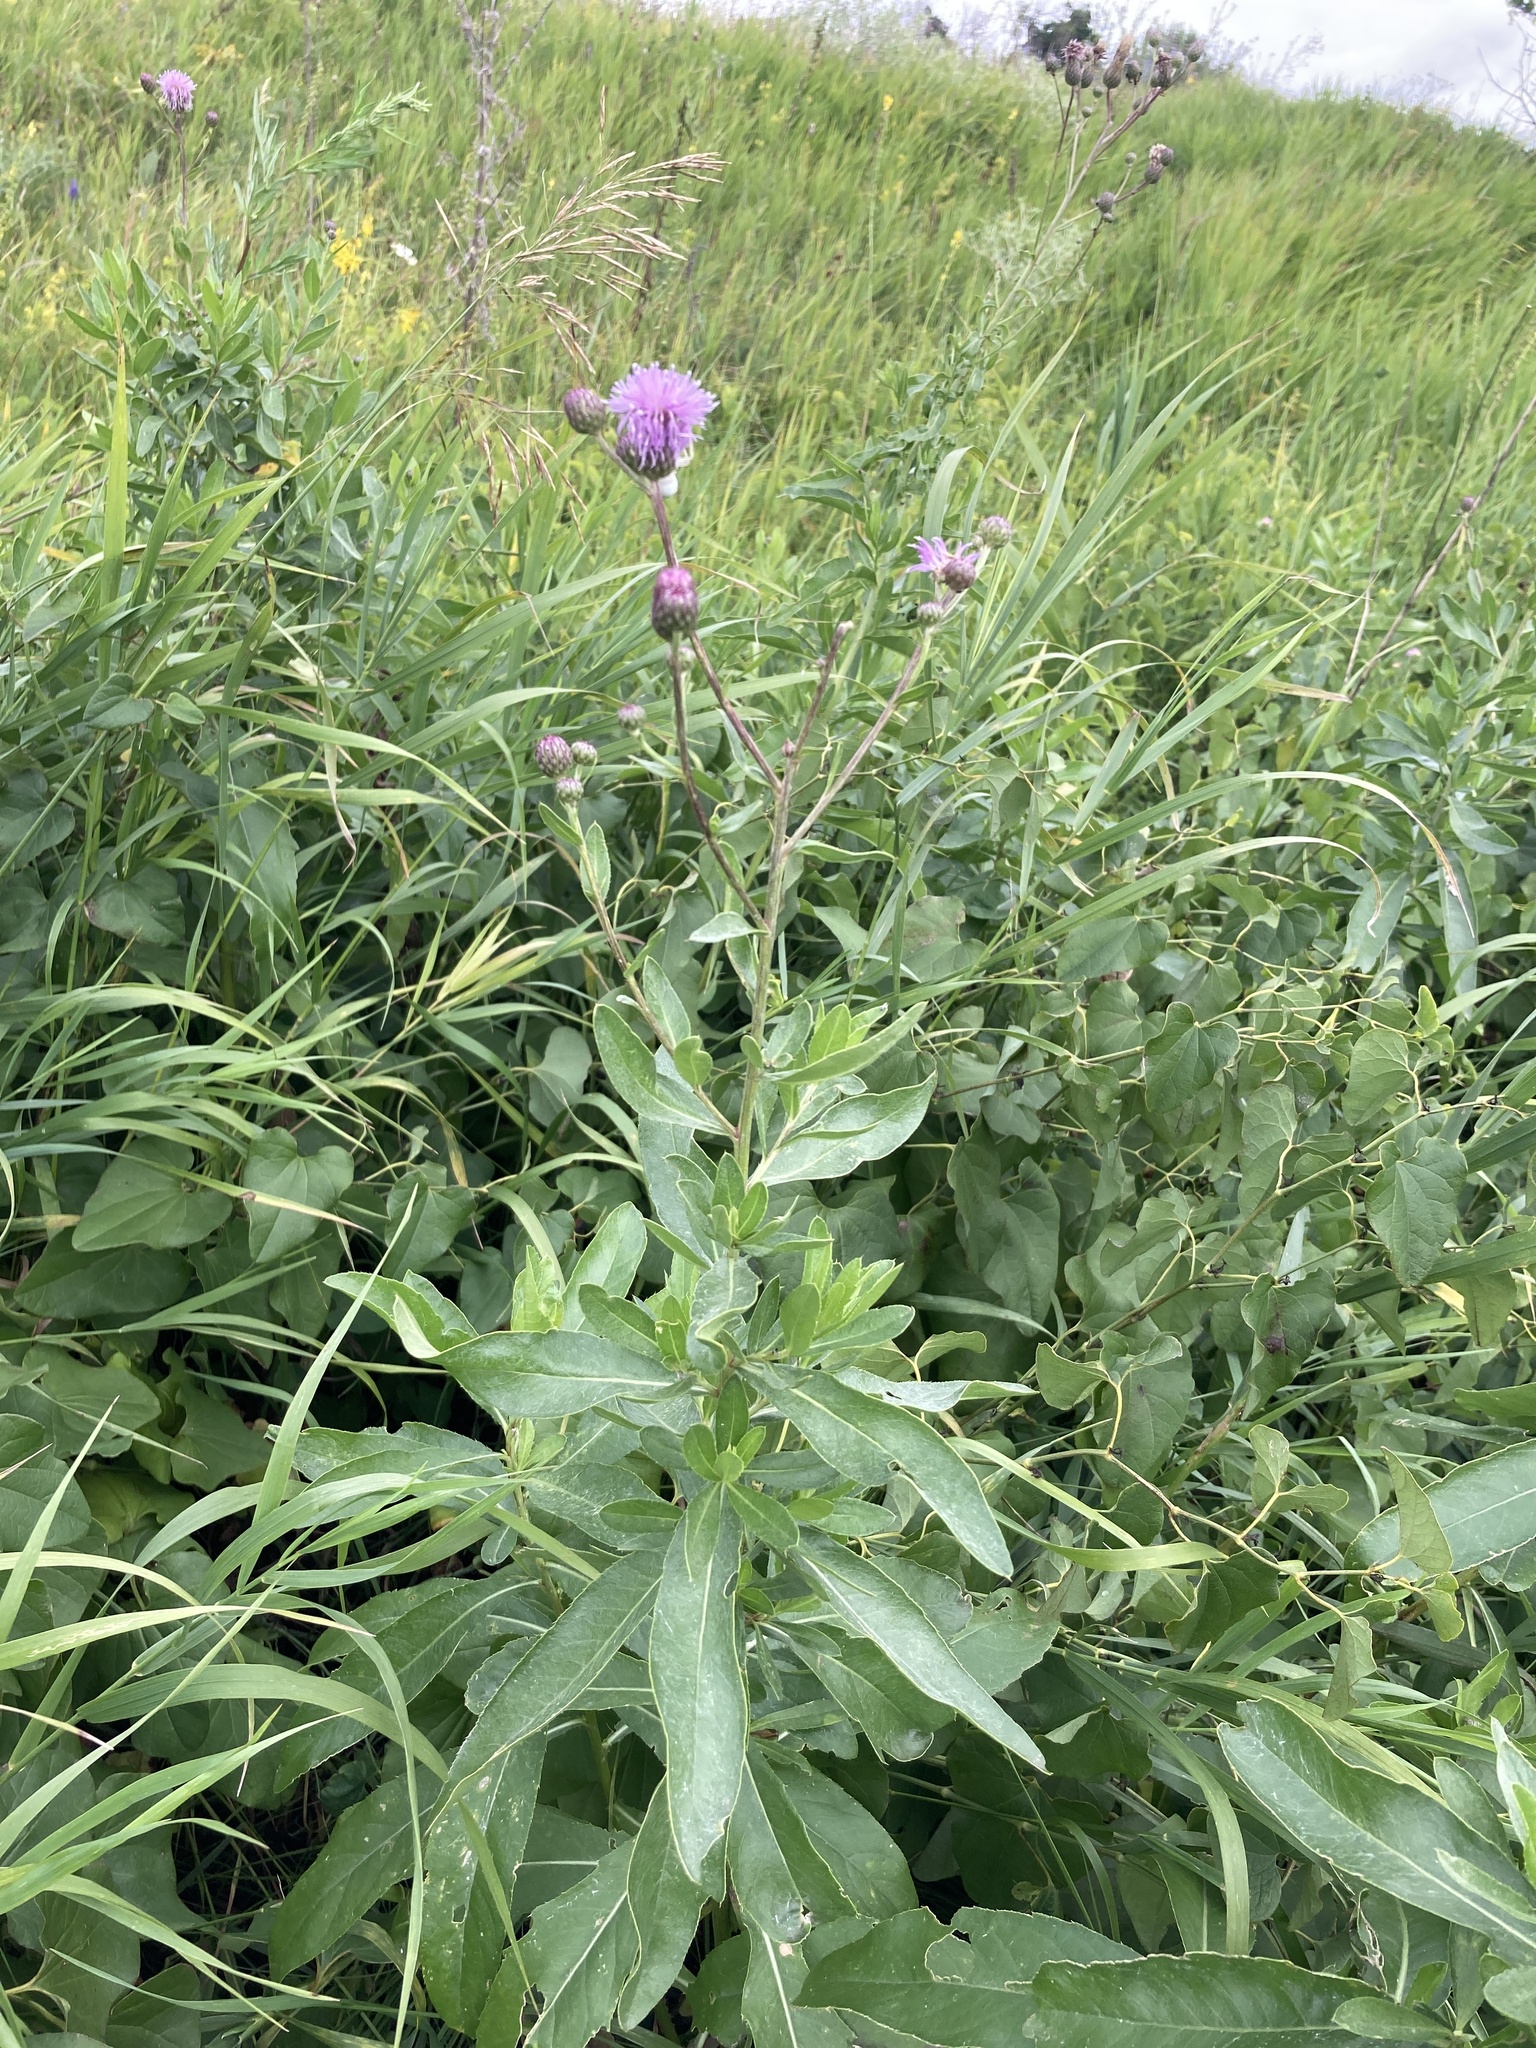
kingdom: Plantae
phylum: Tracheophyta
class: Magnoliopsida
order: Asterales
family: Asteraceae
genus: Cirsium
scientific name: Cirsium arvense
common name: Creeping thistle
